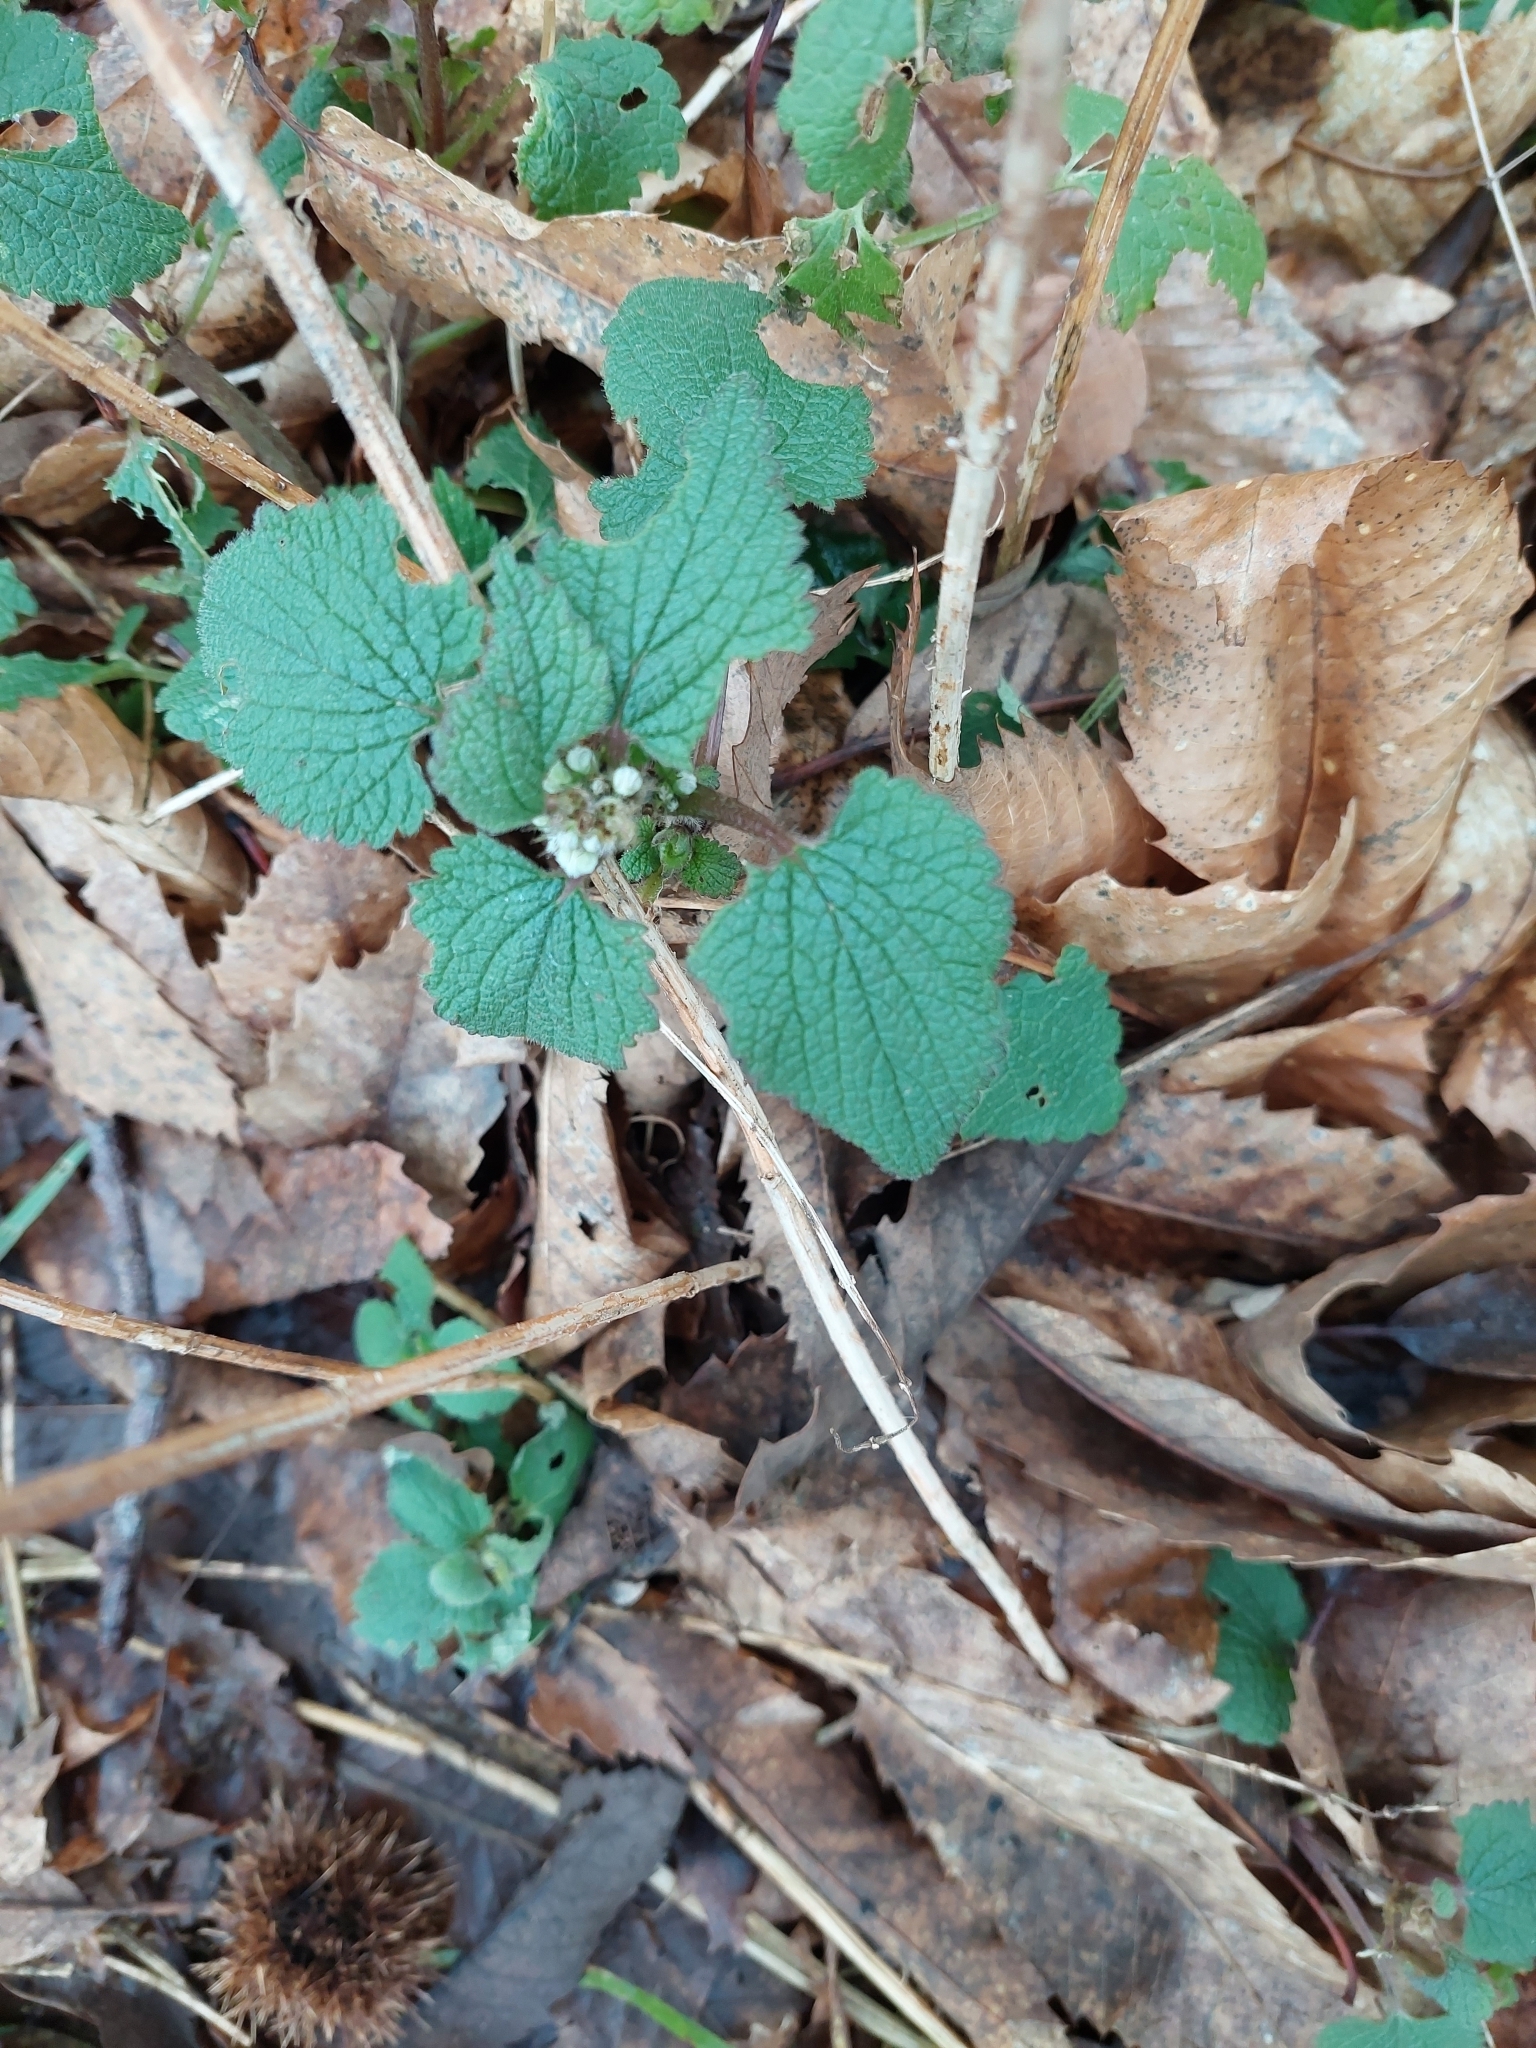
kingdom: Plantae
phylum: Tracheophyta
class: Magnoliopsida
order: Lamiales
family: Lamiaceae
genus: Lamium
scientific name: Lamium album
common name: White dead-nettle
